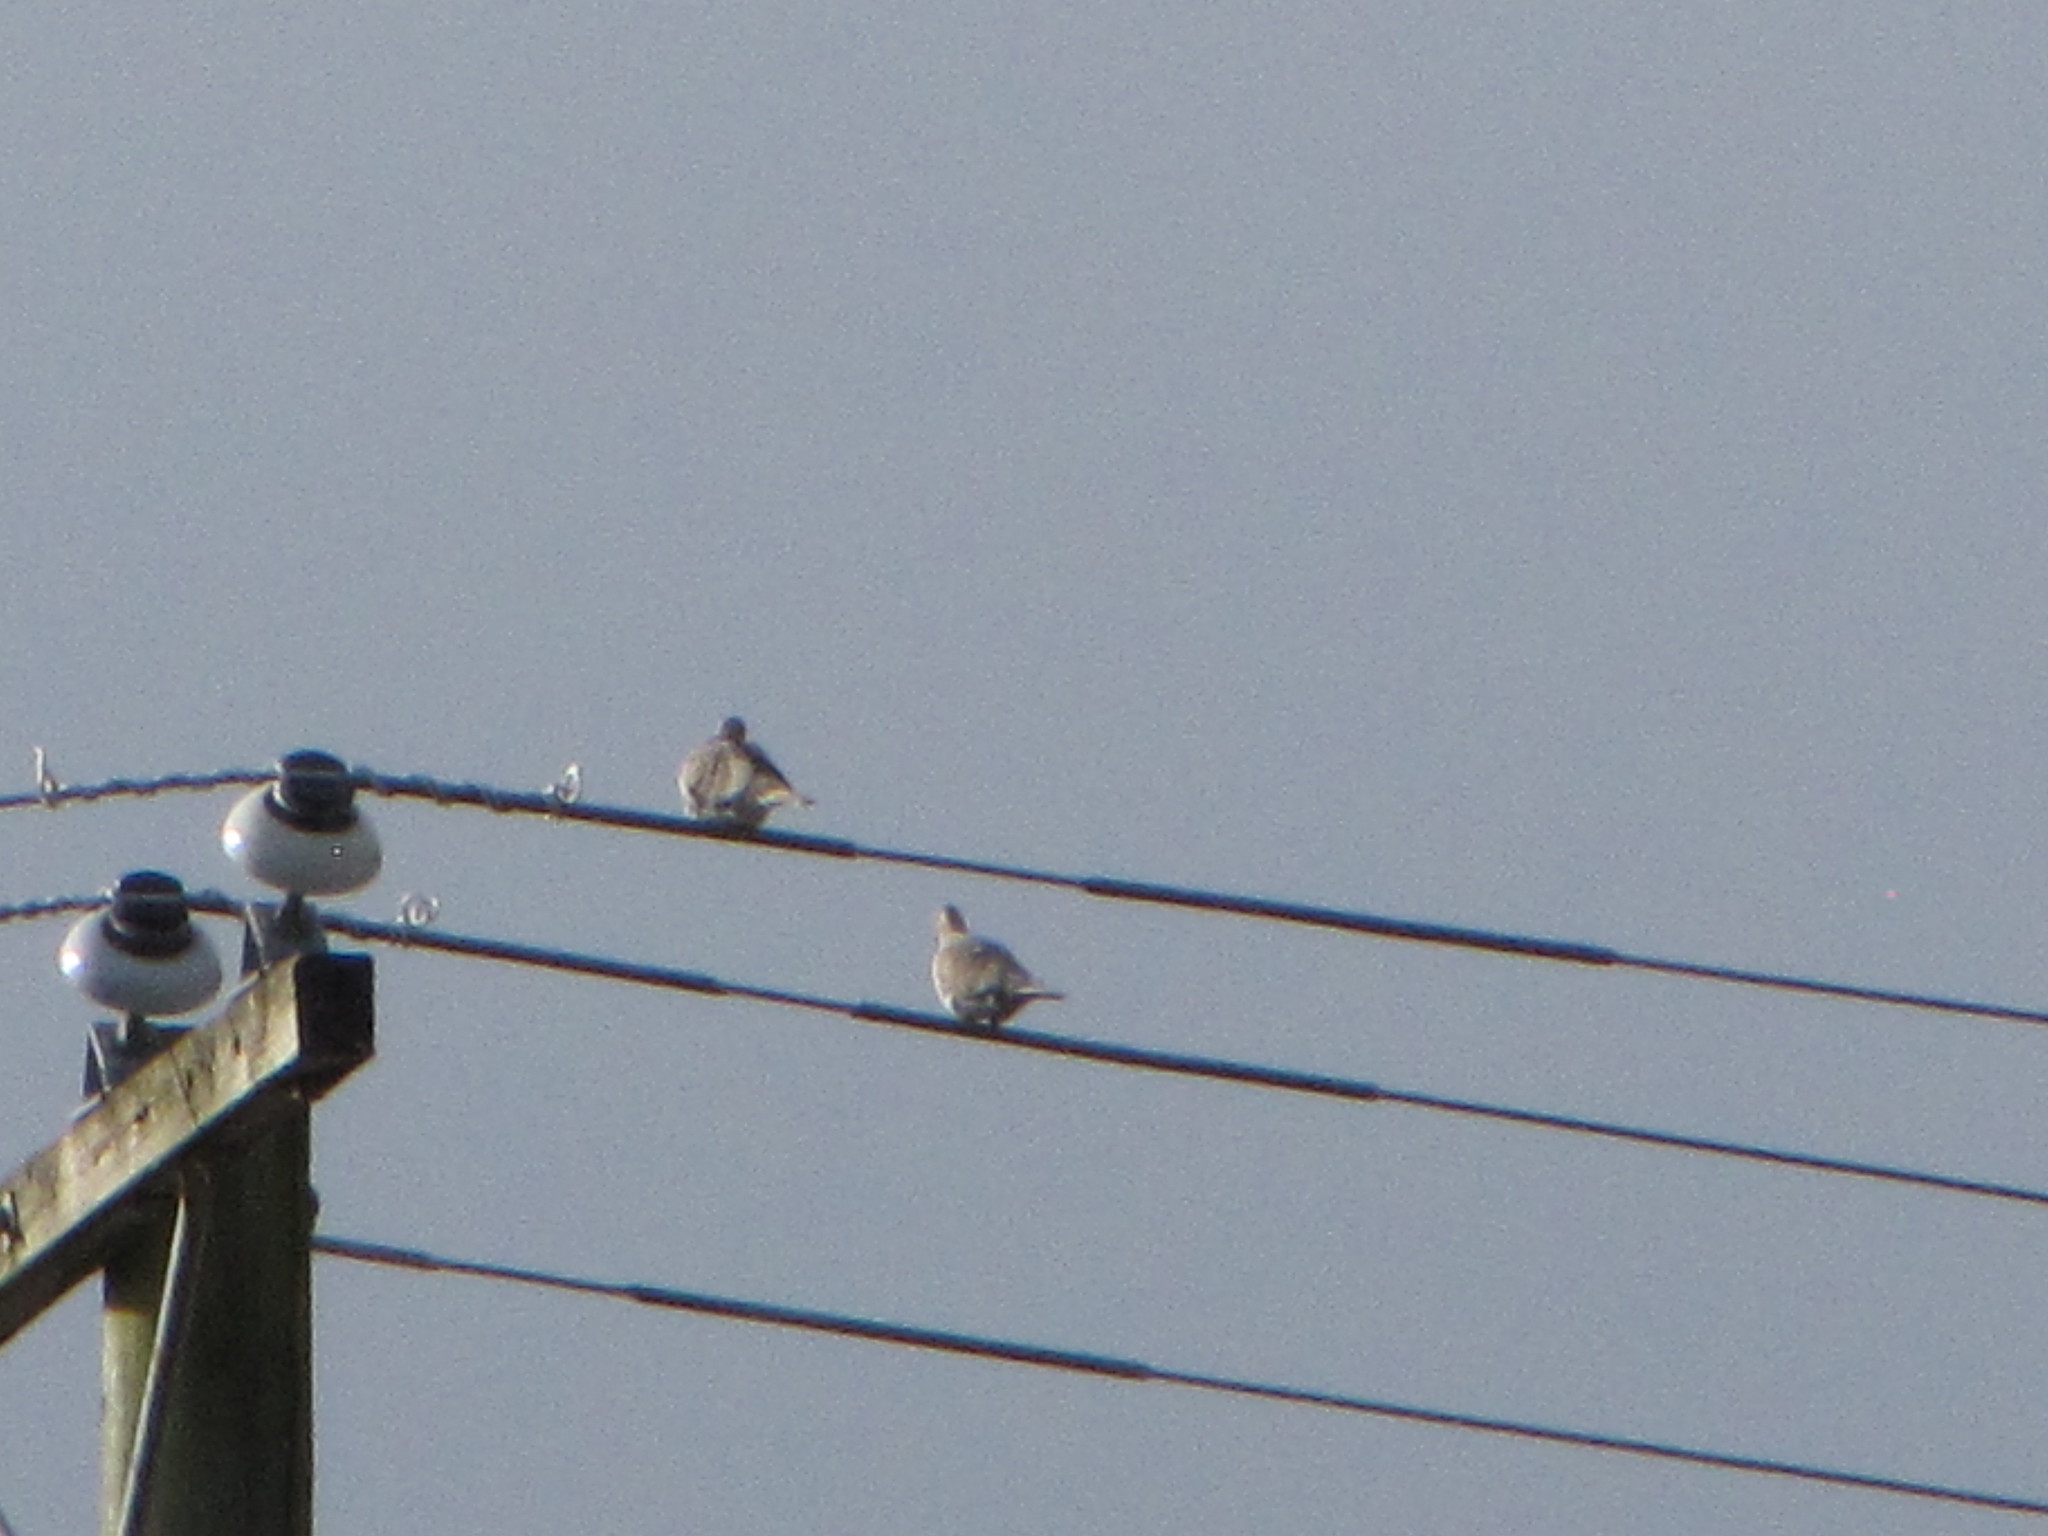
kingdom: Animalia
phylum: Chordata
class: Aves
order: Columbiformes
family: Columbidae
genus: Streptopelia
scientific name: Streptopelia decaocto
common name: Eurasian collared dove
